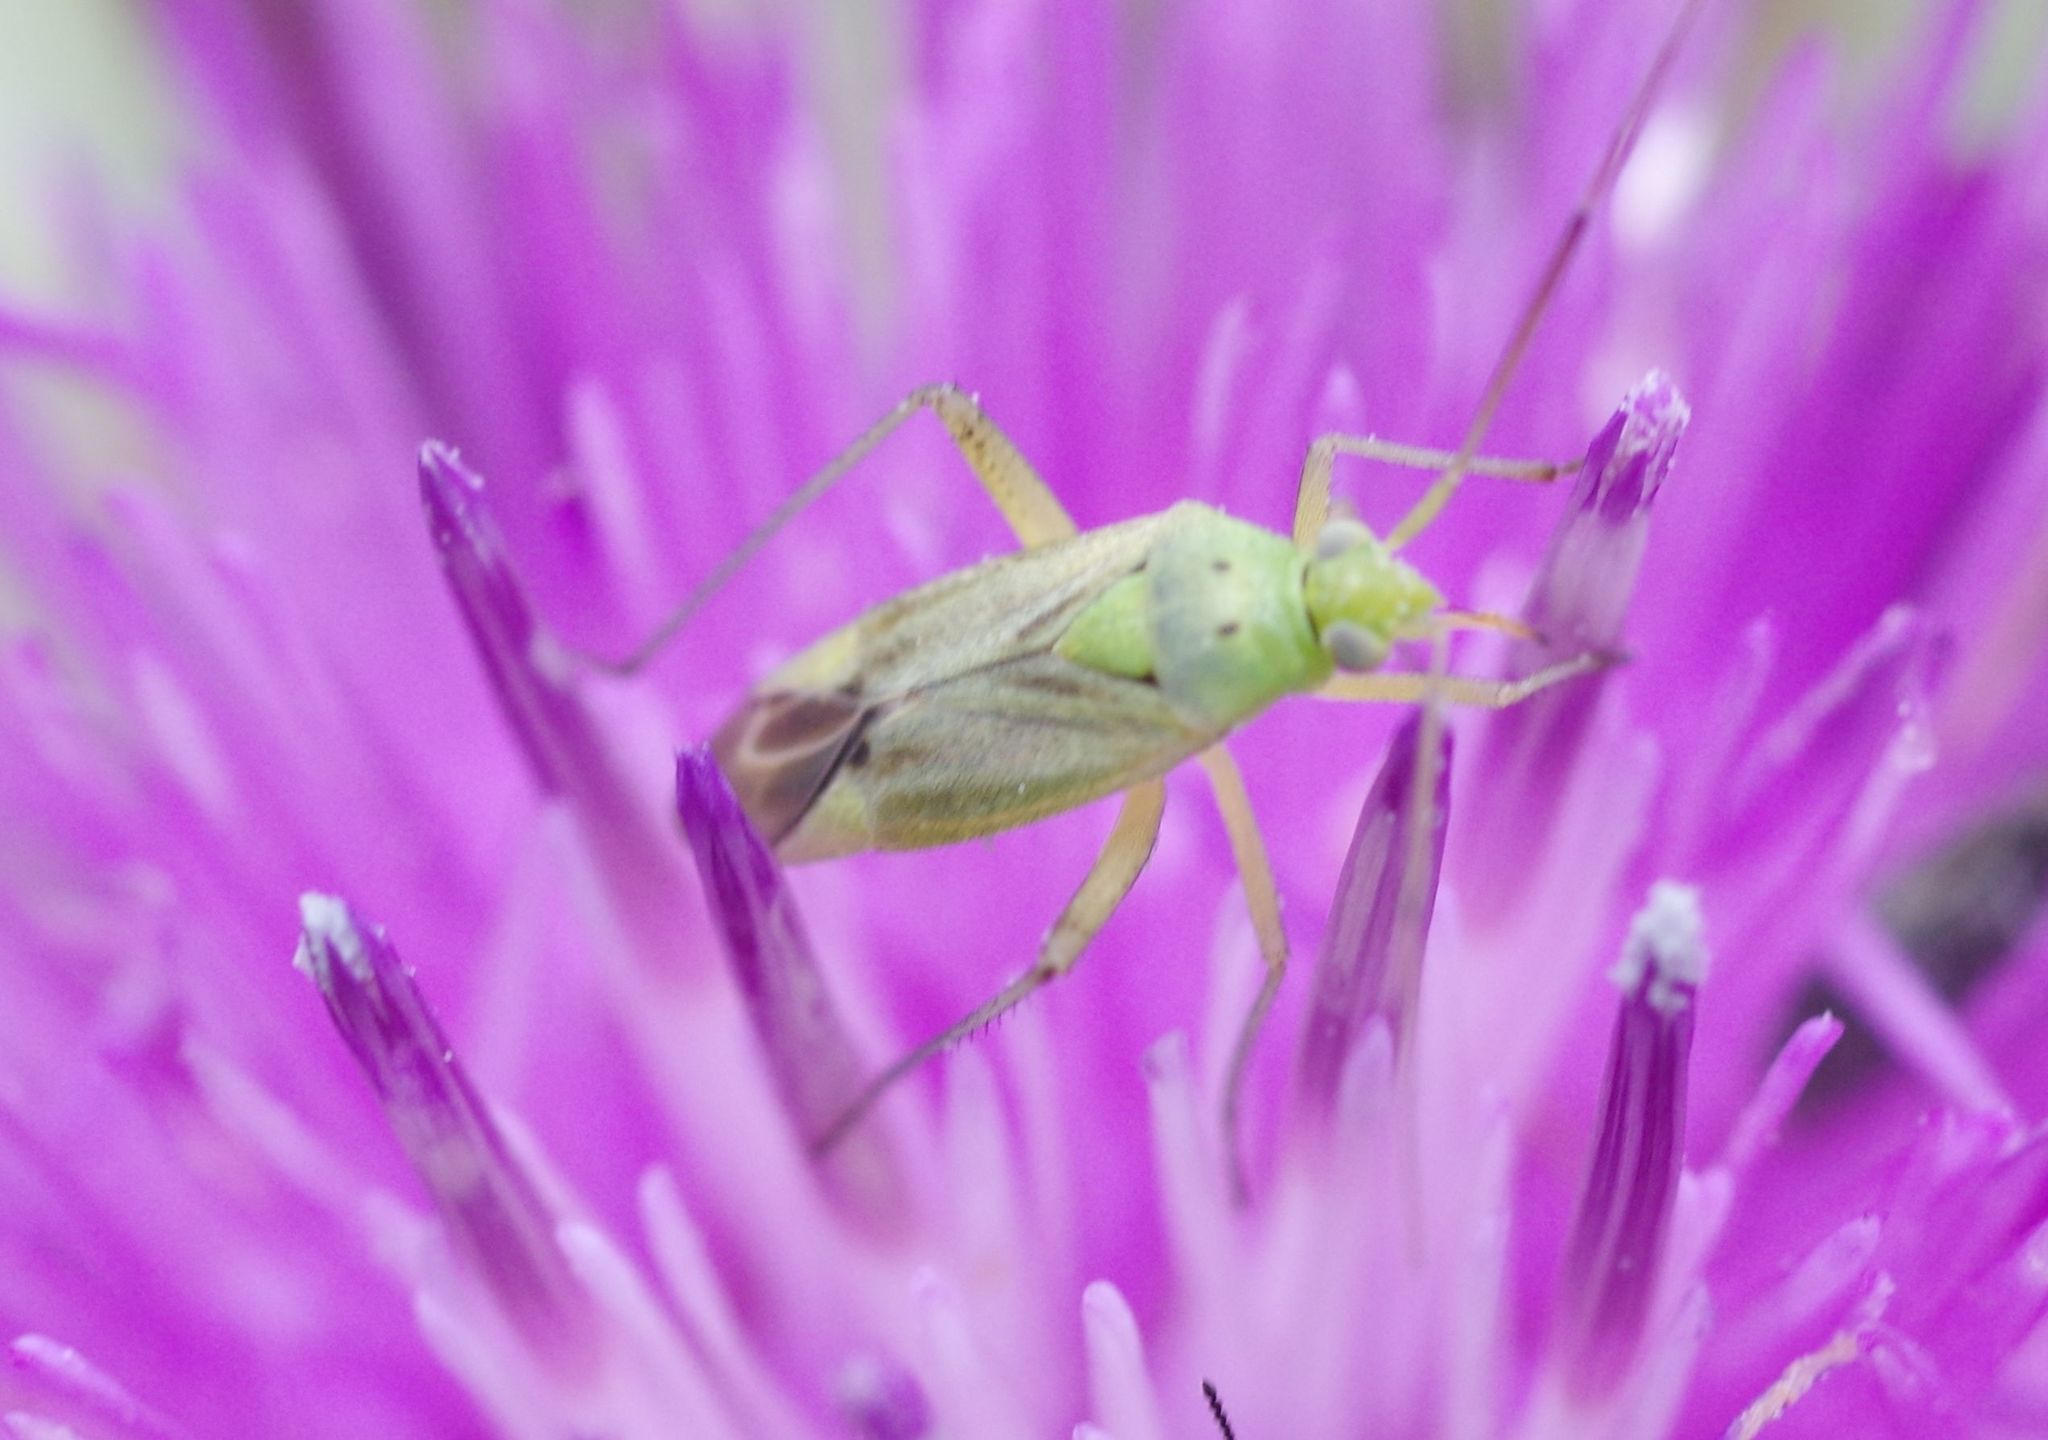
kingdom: Animalia
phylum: Arthropoda
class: Insecta
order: Hemiptera
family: Miridae
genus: Closterotomus
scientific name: Closterotomus norvegicus
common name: Plant bug
